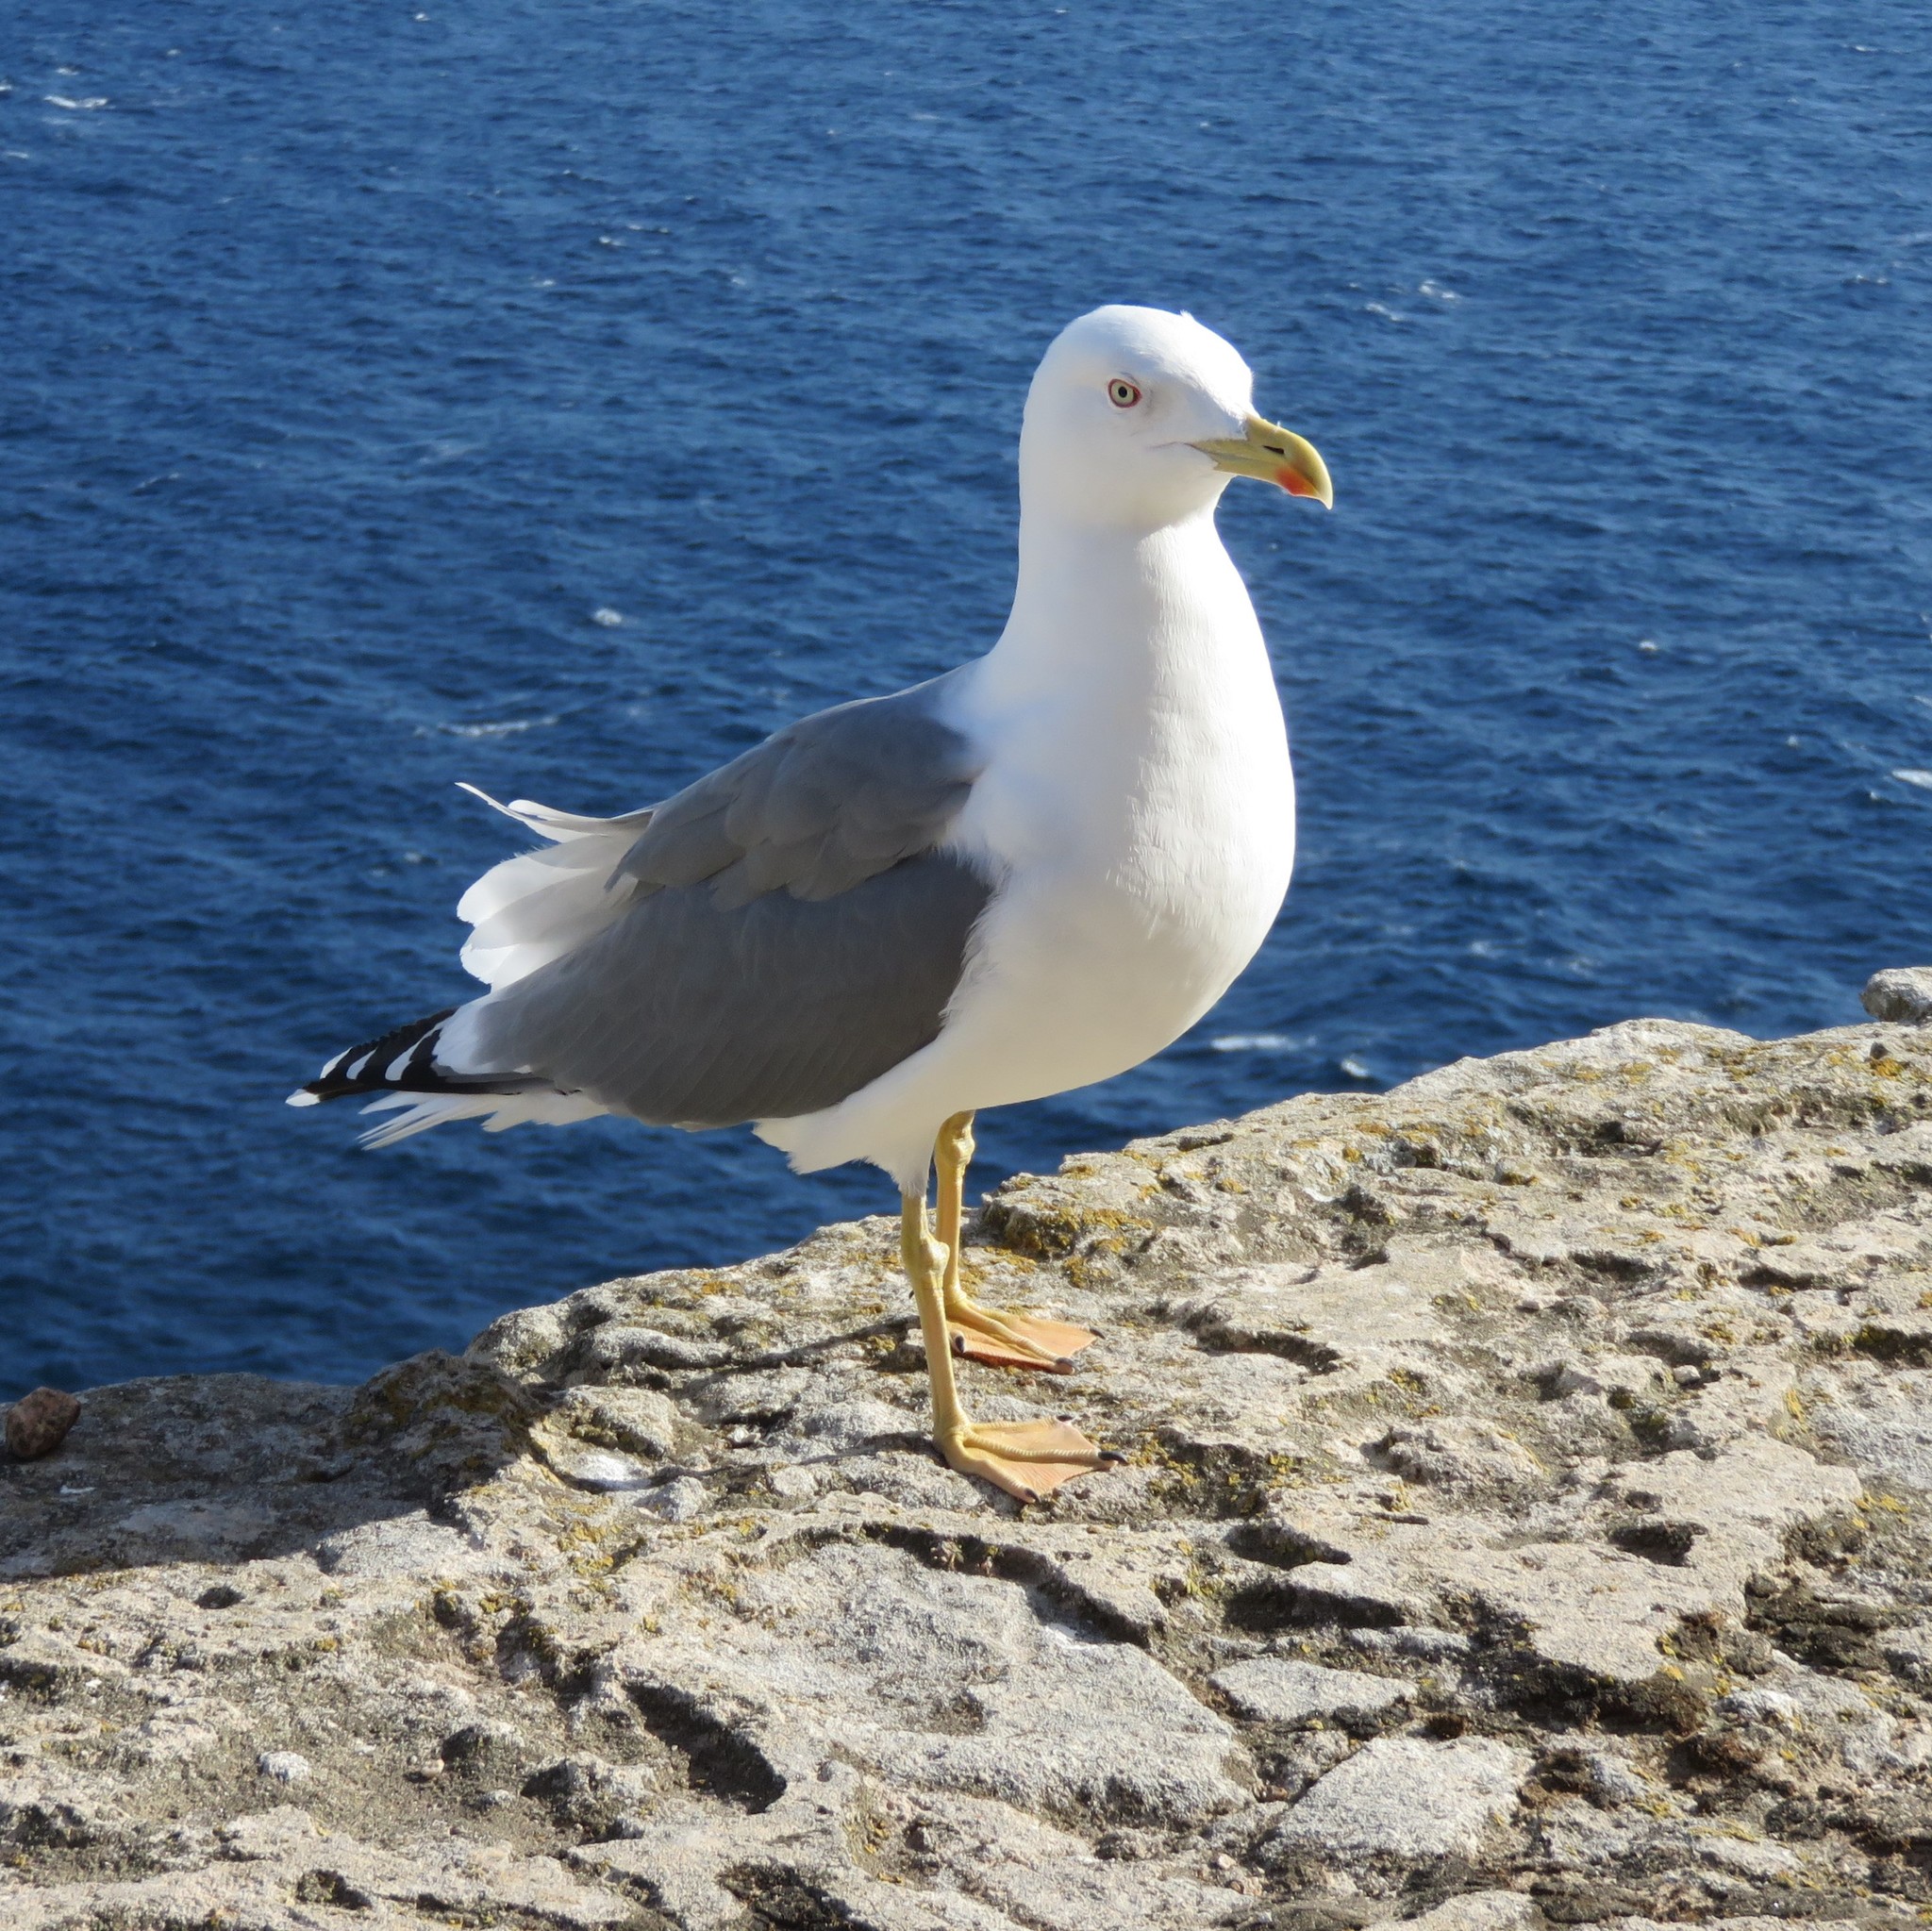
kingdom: Animalia
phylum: Chordata
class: Aves
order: Charadriiformes
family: Laridae
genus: Larus
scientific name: Larus michahellis
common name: Yellow-legged gull
